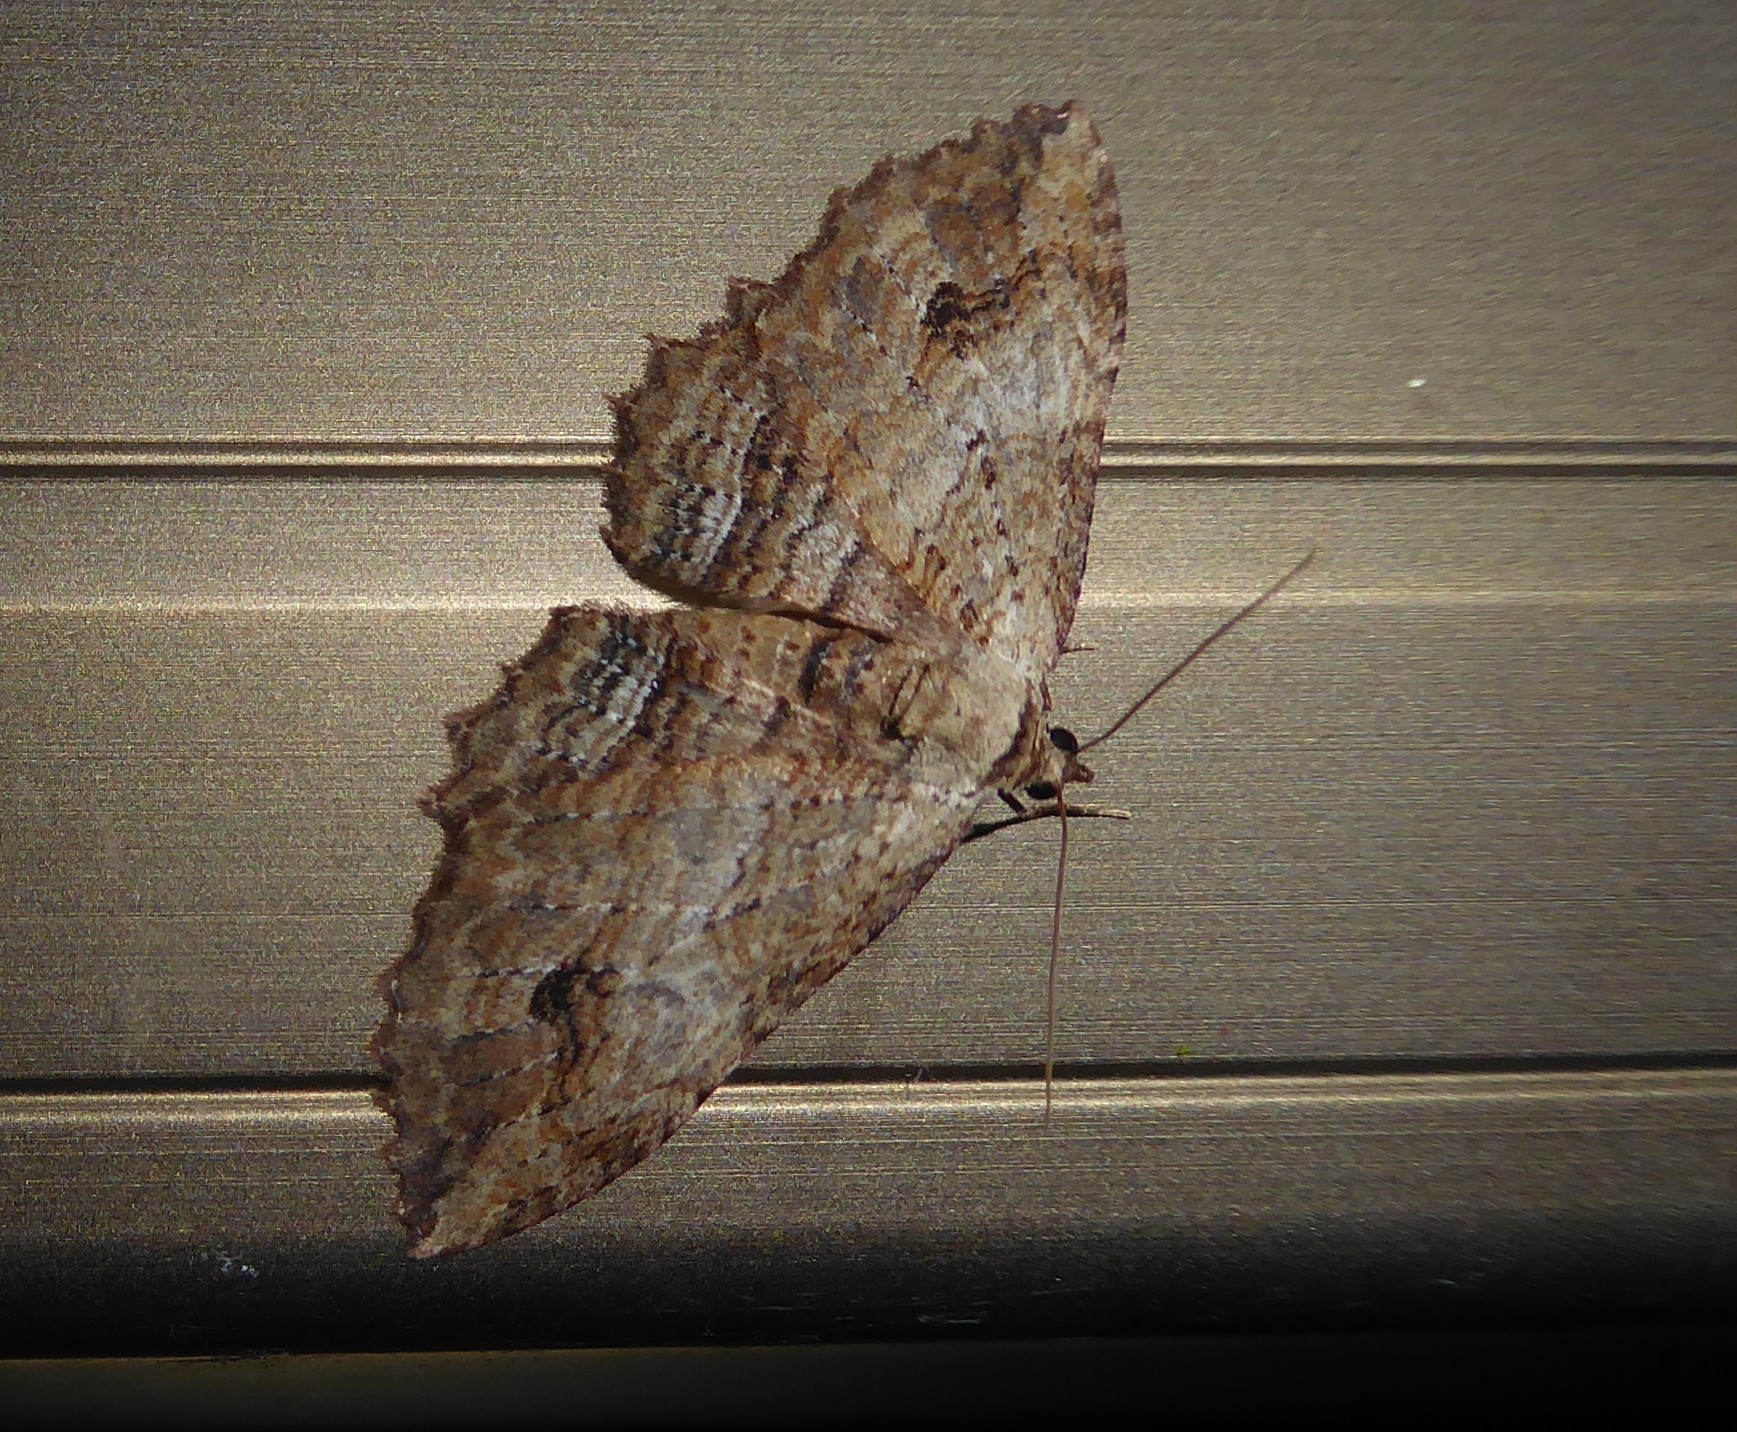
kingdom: Animalia
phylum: Arthropoda
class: Insecta
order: Lepidoptera
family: Geometridae
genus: Austrocidaria
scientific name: Austrocidaria bipartita
